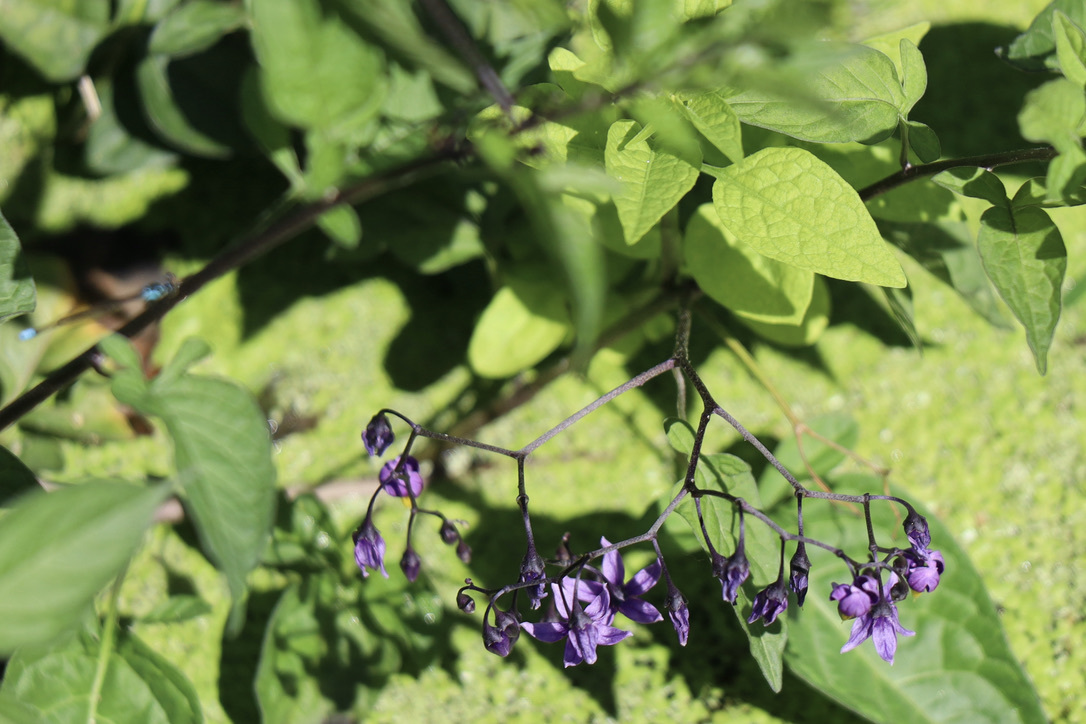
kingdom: Plantae
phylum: Tracheophyta
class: Magnoliopsida
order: Solanales
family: Solanaceae
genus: Solanum
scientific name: Solanum dulcamara
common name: Climbing nightshade
